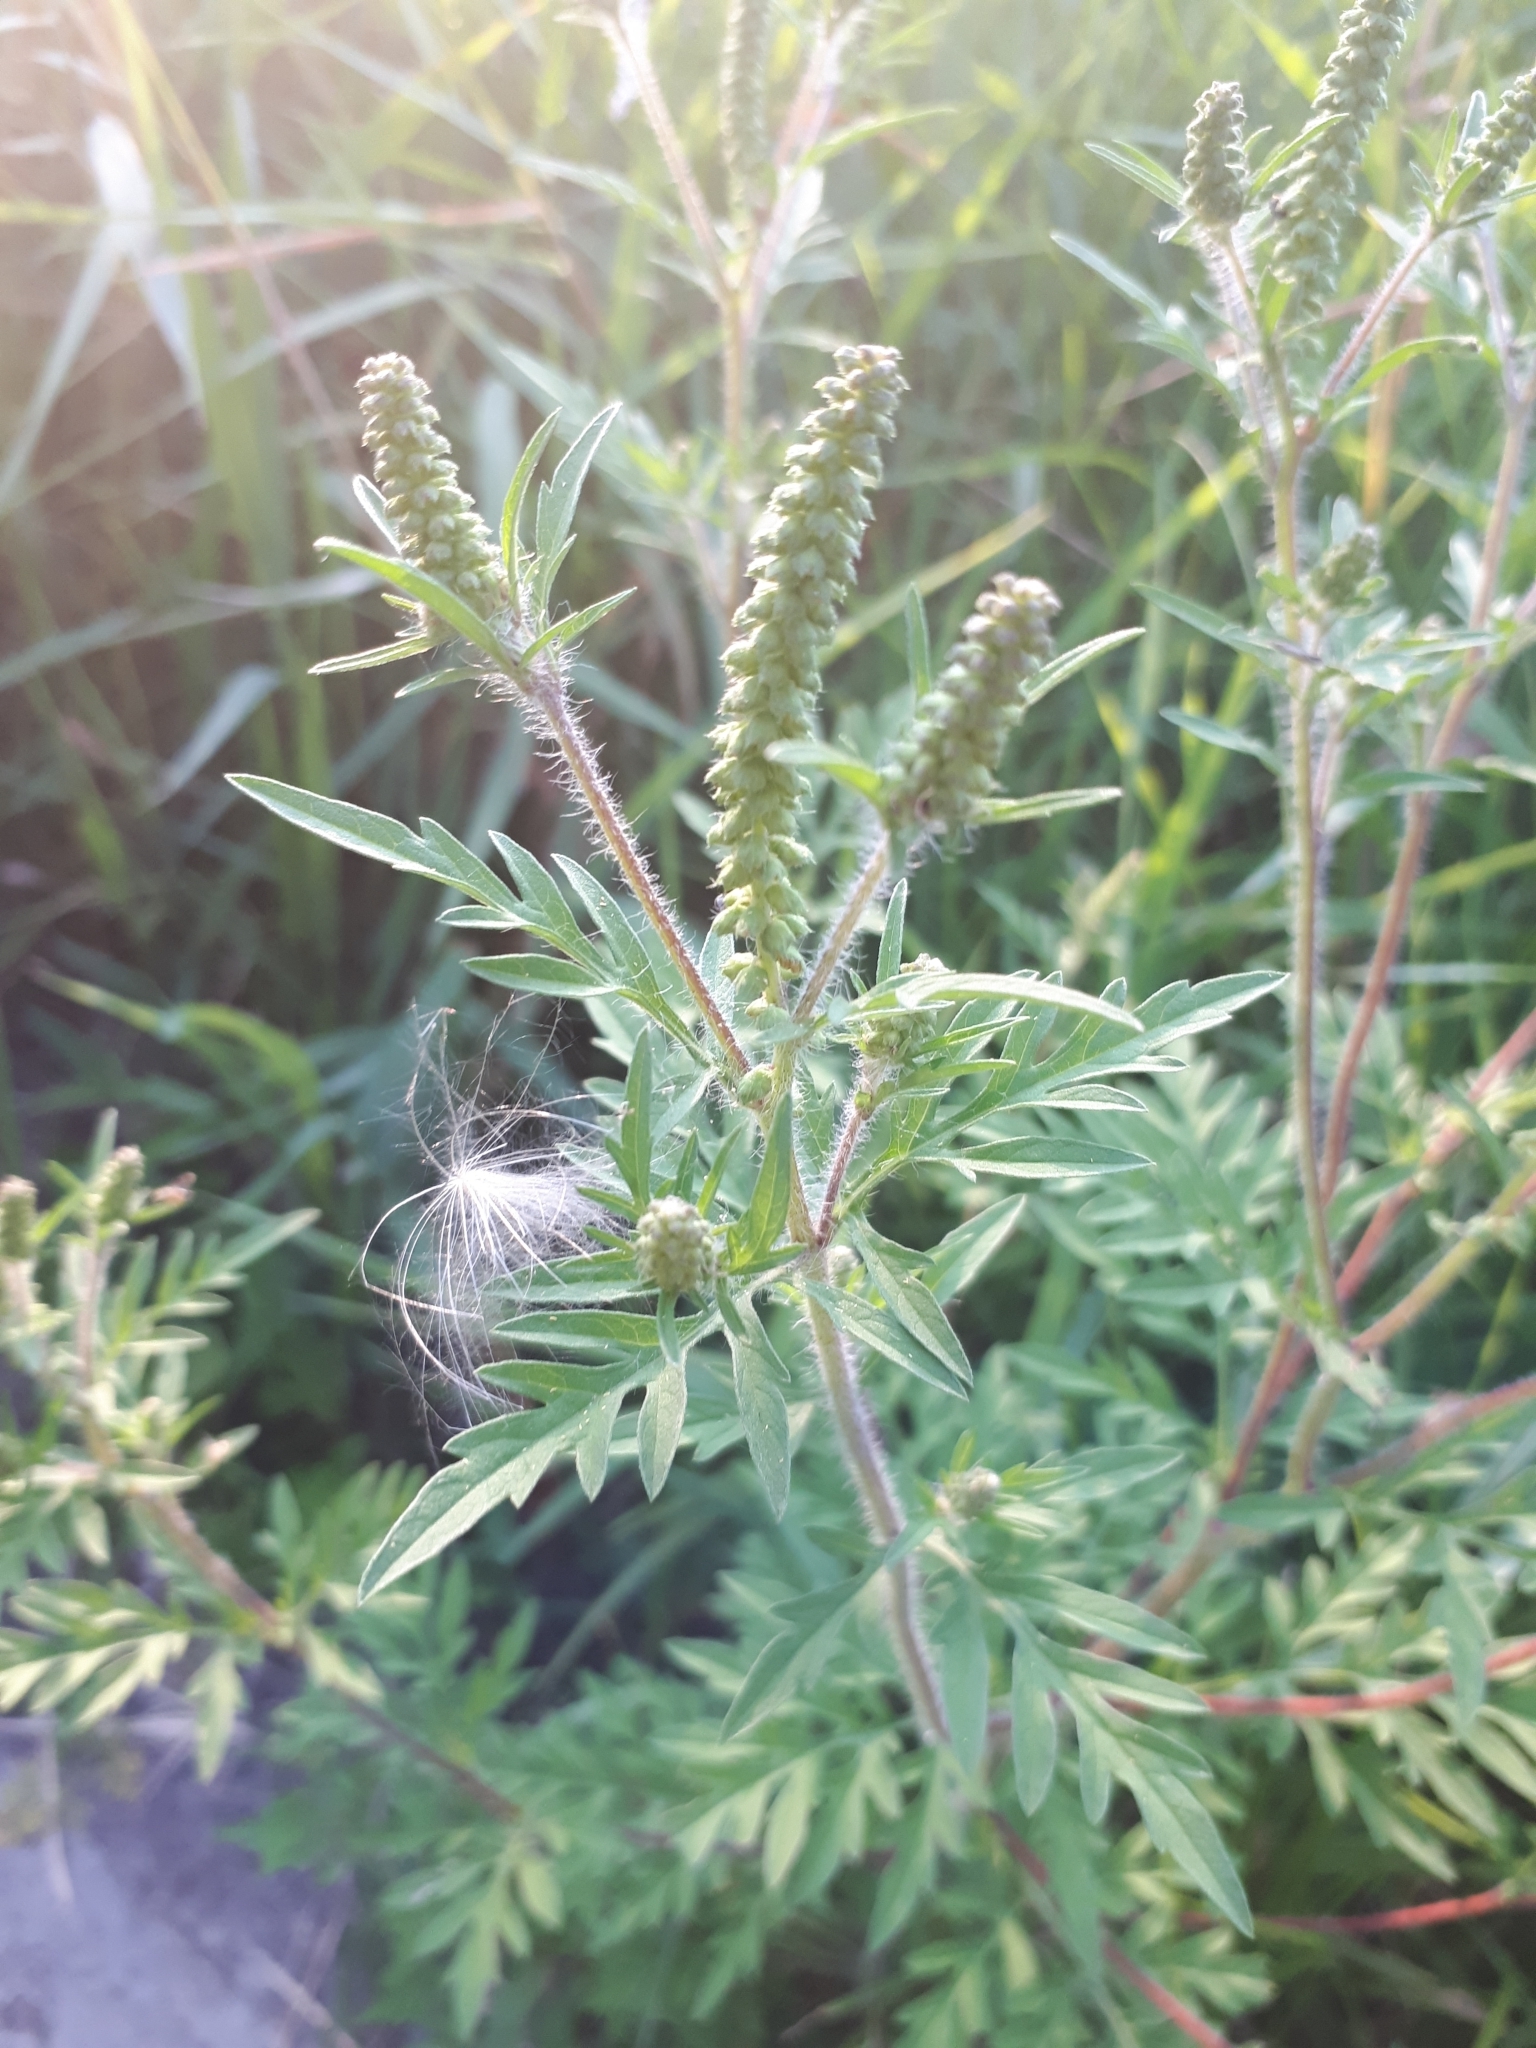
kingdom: Plantae
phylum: Tracheophyta
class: Magnoliopsida
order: Asterales
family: Asteraceae
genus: Ambrosia
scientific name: Ambrosia artemisiifolia
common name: Annual ragweed
